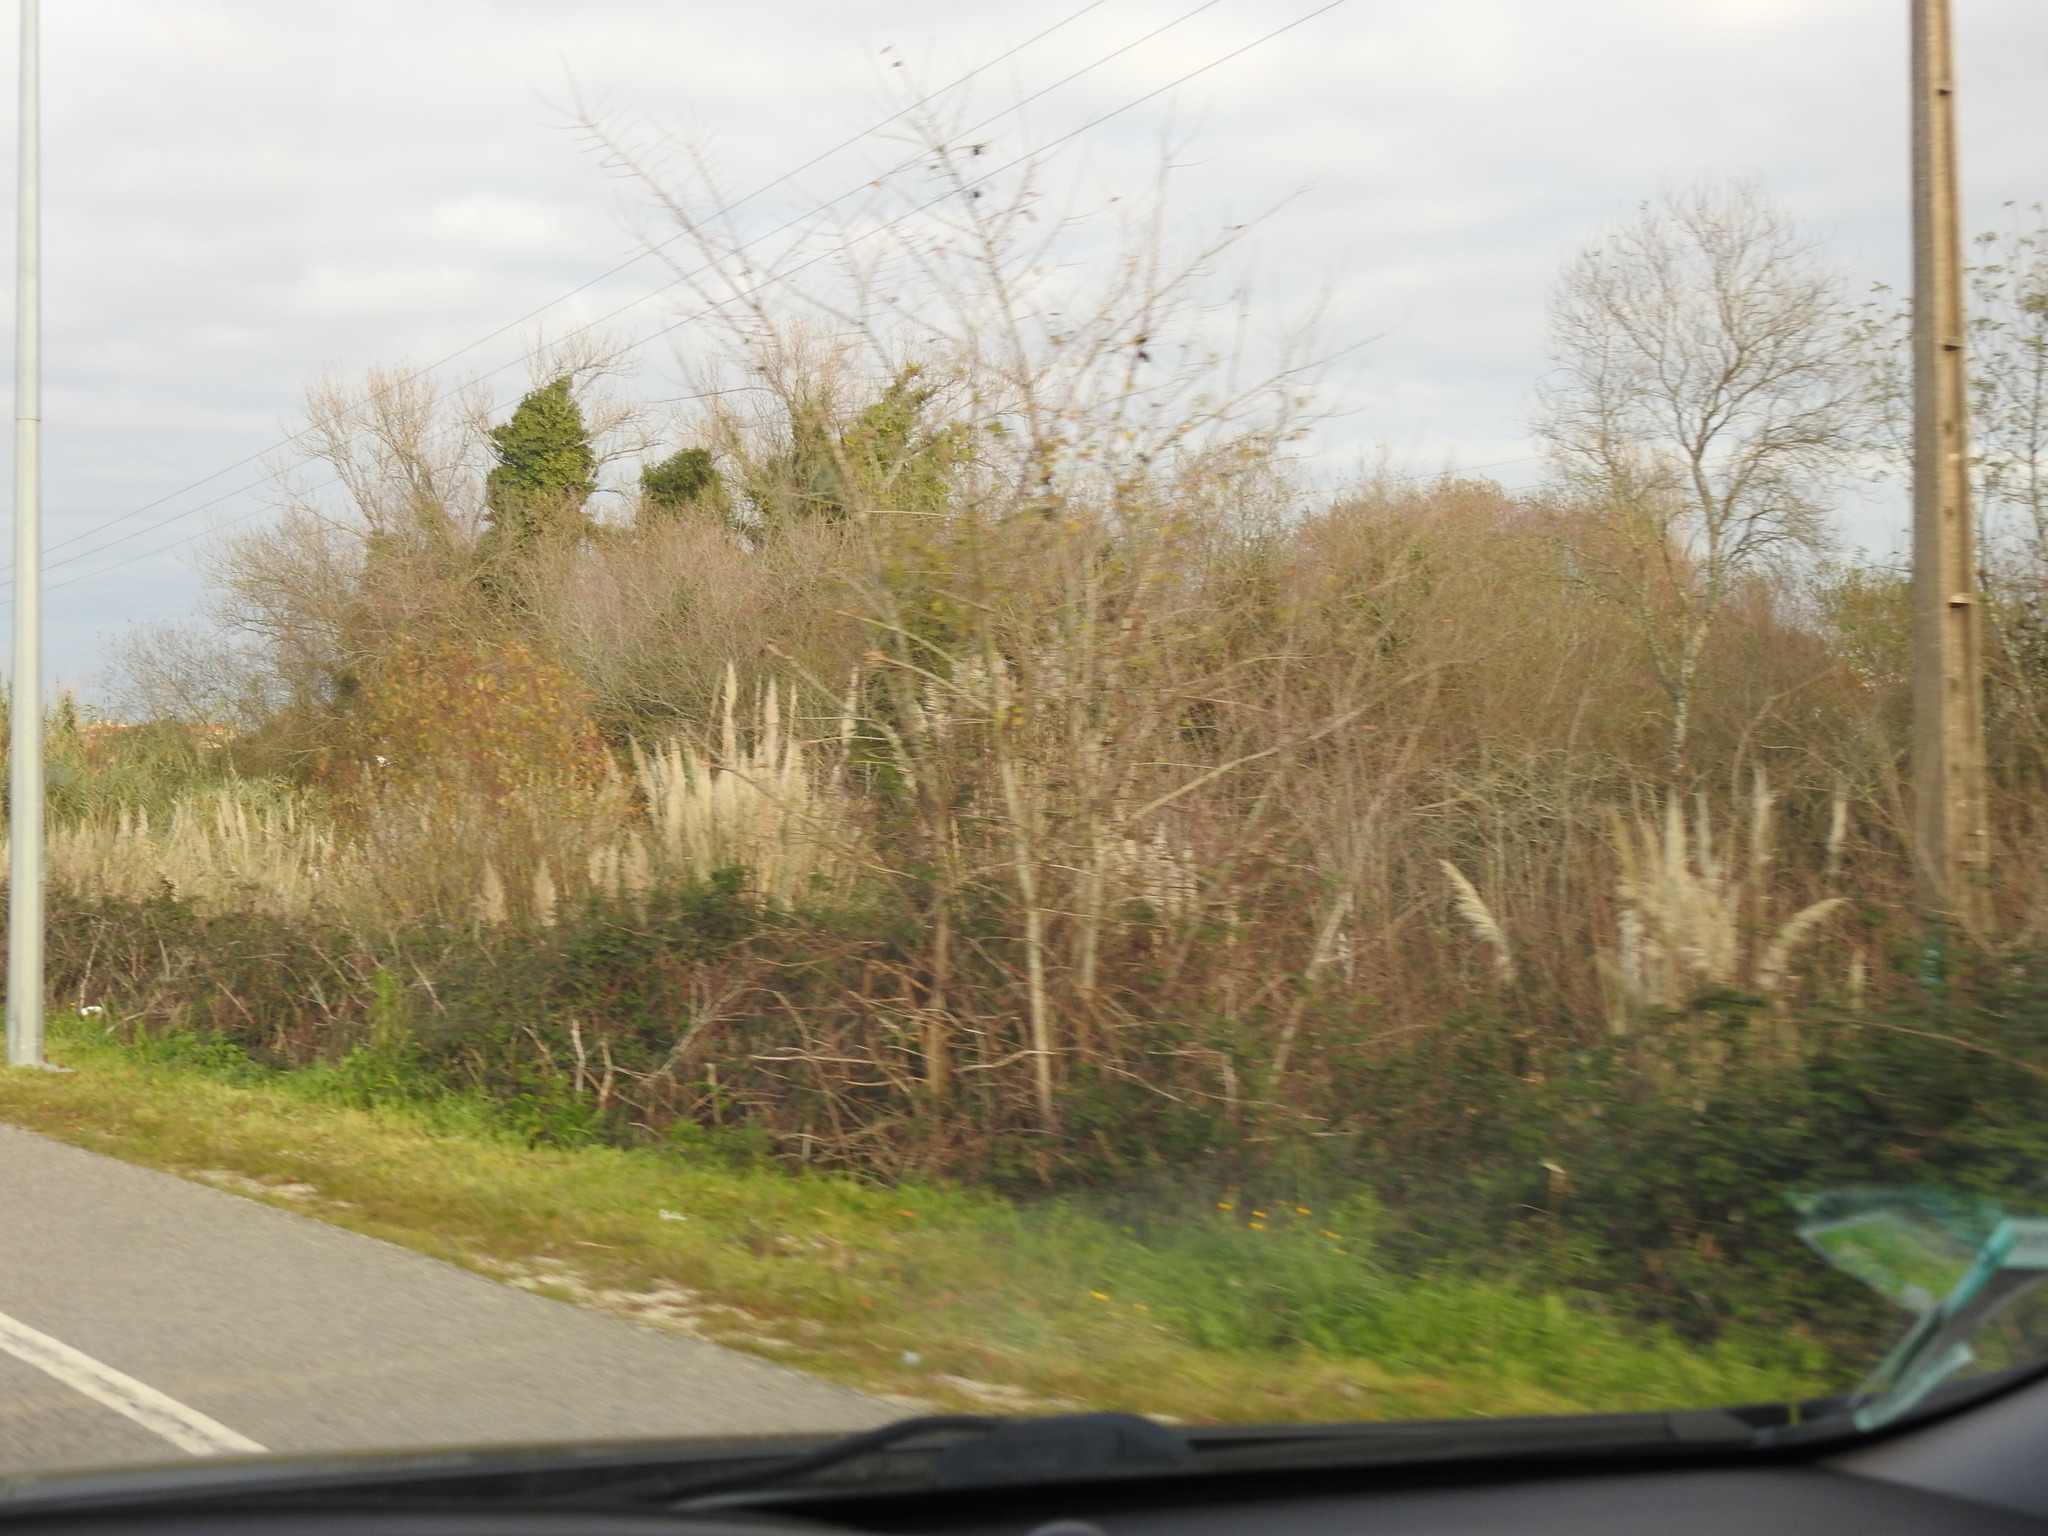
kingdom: Plantae
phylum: Tracheophyta
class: Liliopsida
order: Poales
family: Poaceae
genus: Cortaderia
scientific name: Cortaderia selloana
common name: Uruguayan pampas grass
